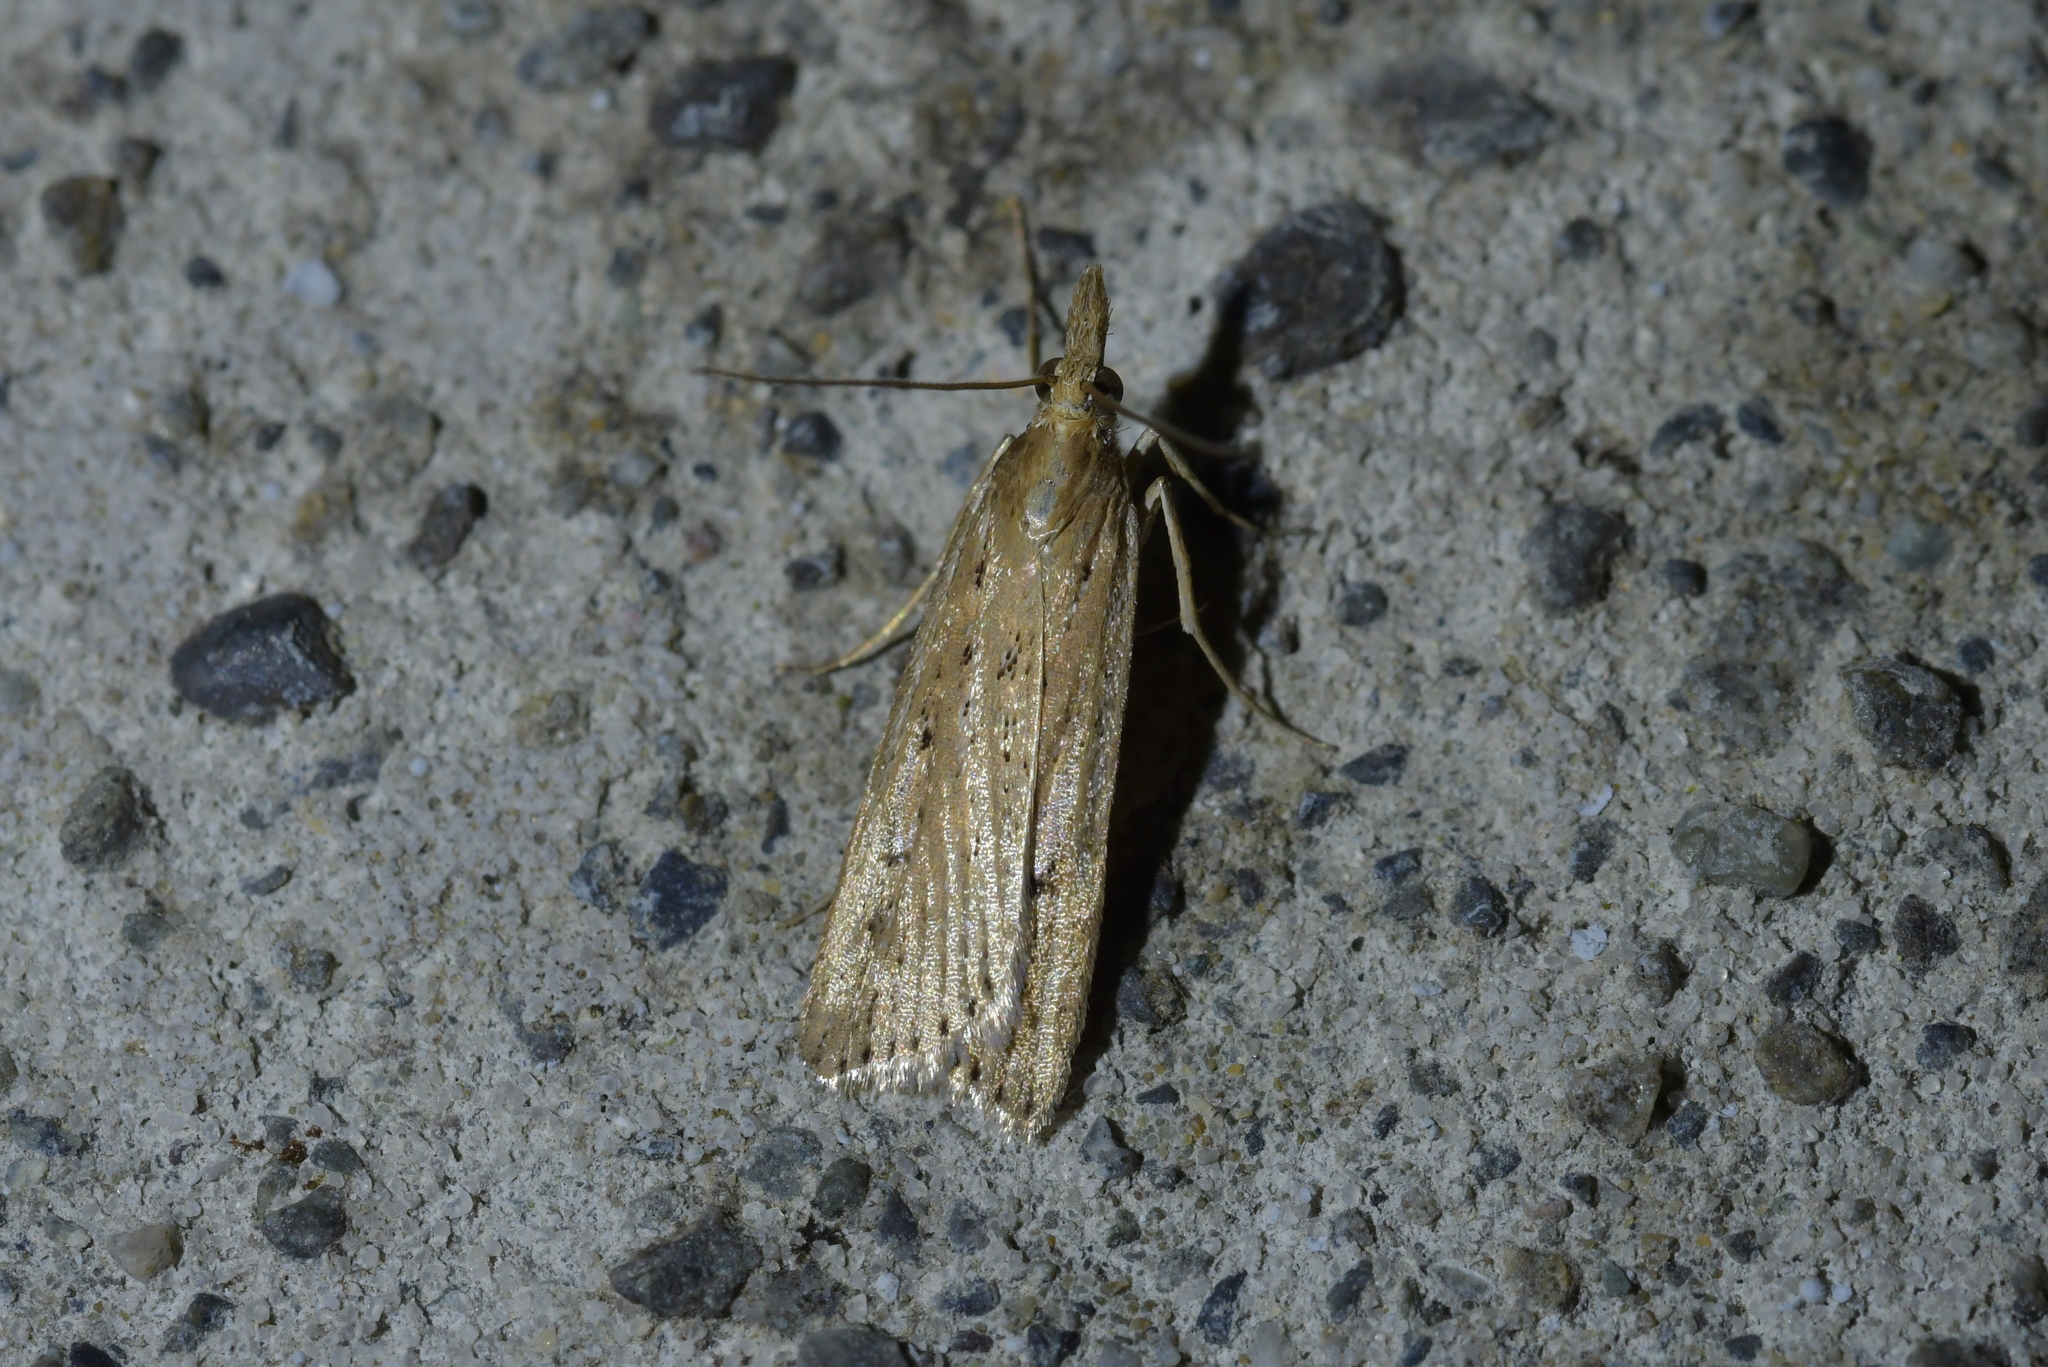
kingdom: Animalia
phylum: Arthropoda
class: Insecta
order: Lepidoptera
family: Crambidae
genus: Eudonia
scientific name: Eudonia sabulosella
